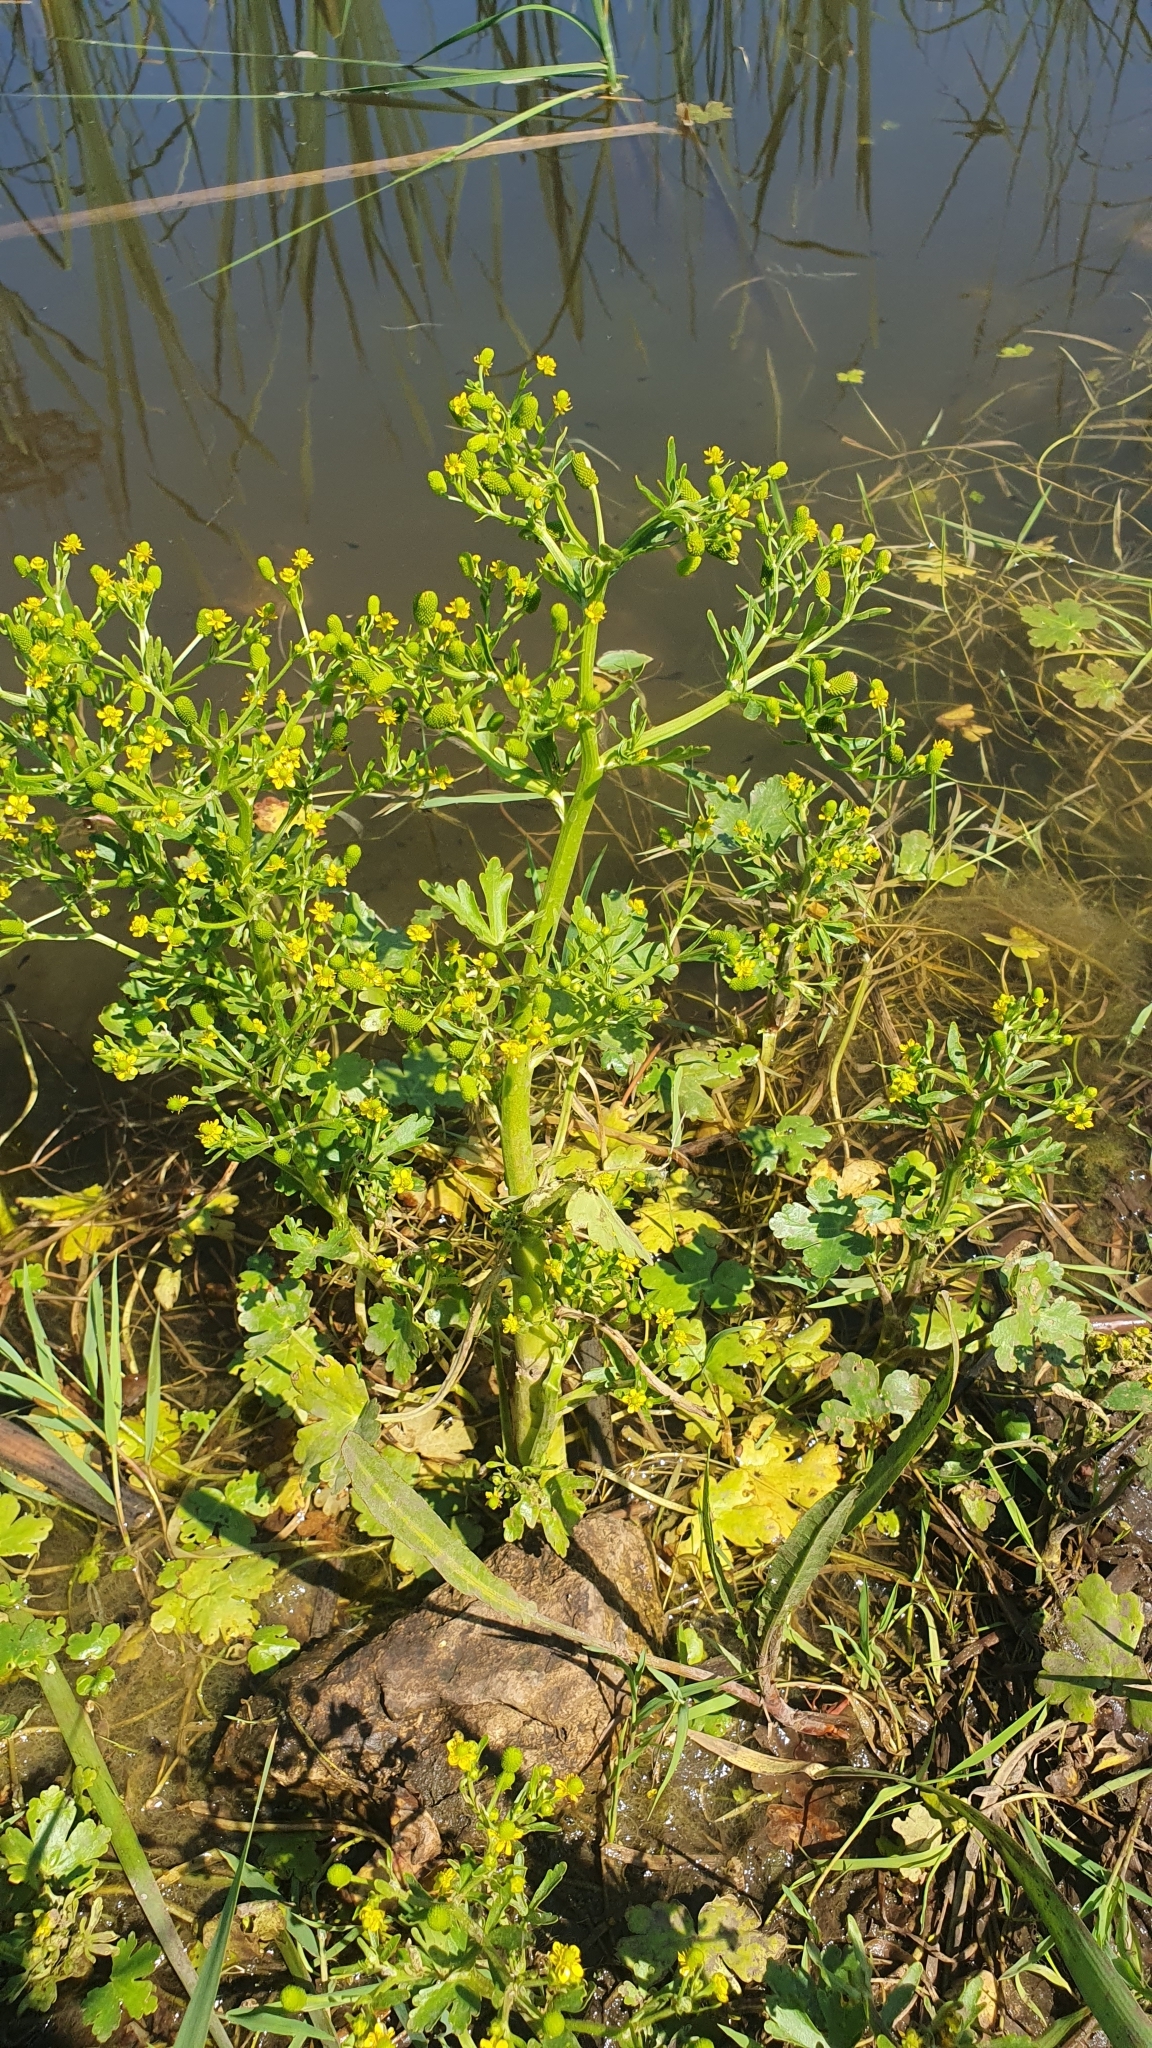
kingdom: Plantae
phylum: Tracheophyta
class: Magnoliopsida
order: Ranunculales
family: Ranunculaceae
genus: Ranunculus
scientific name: Ranunculus sceleratus
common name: Celery-leaved buttercup
